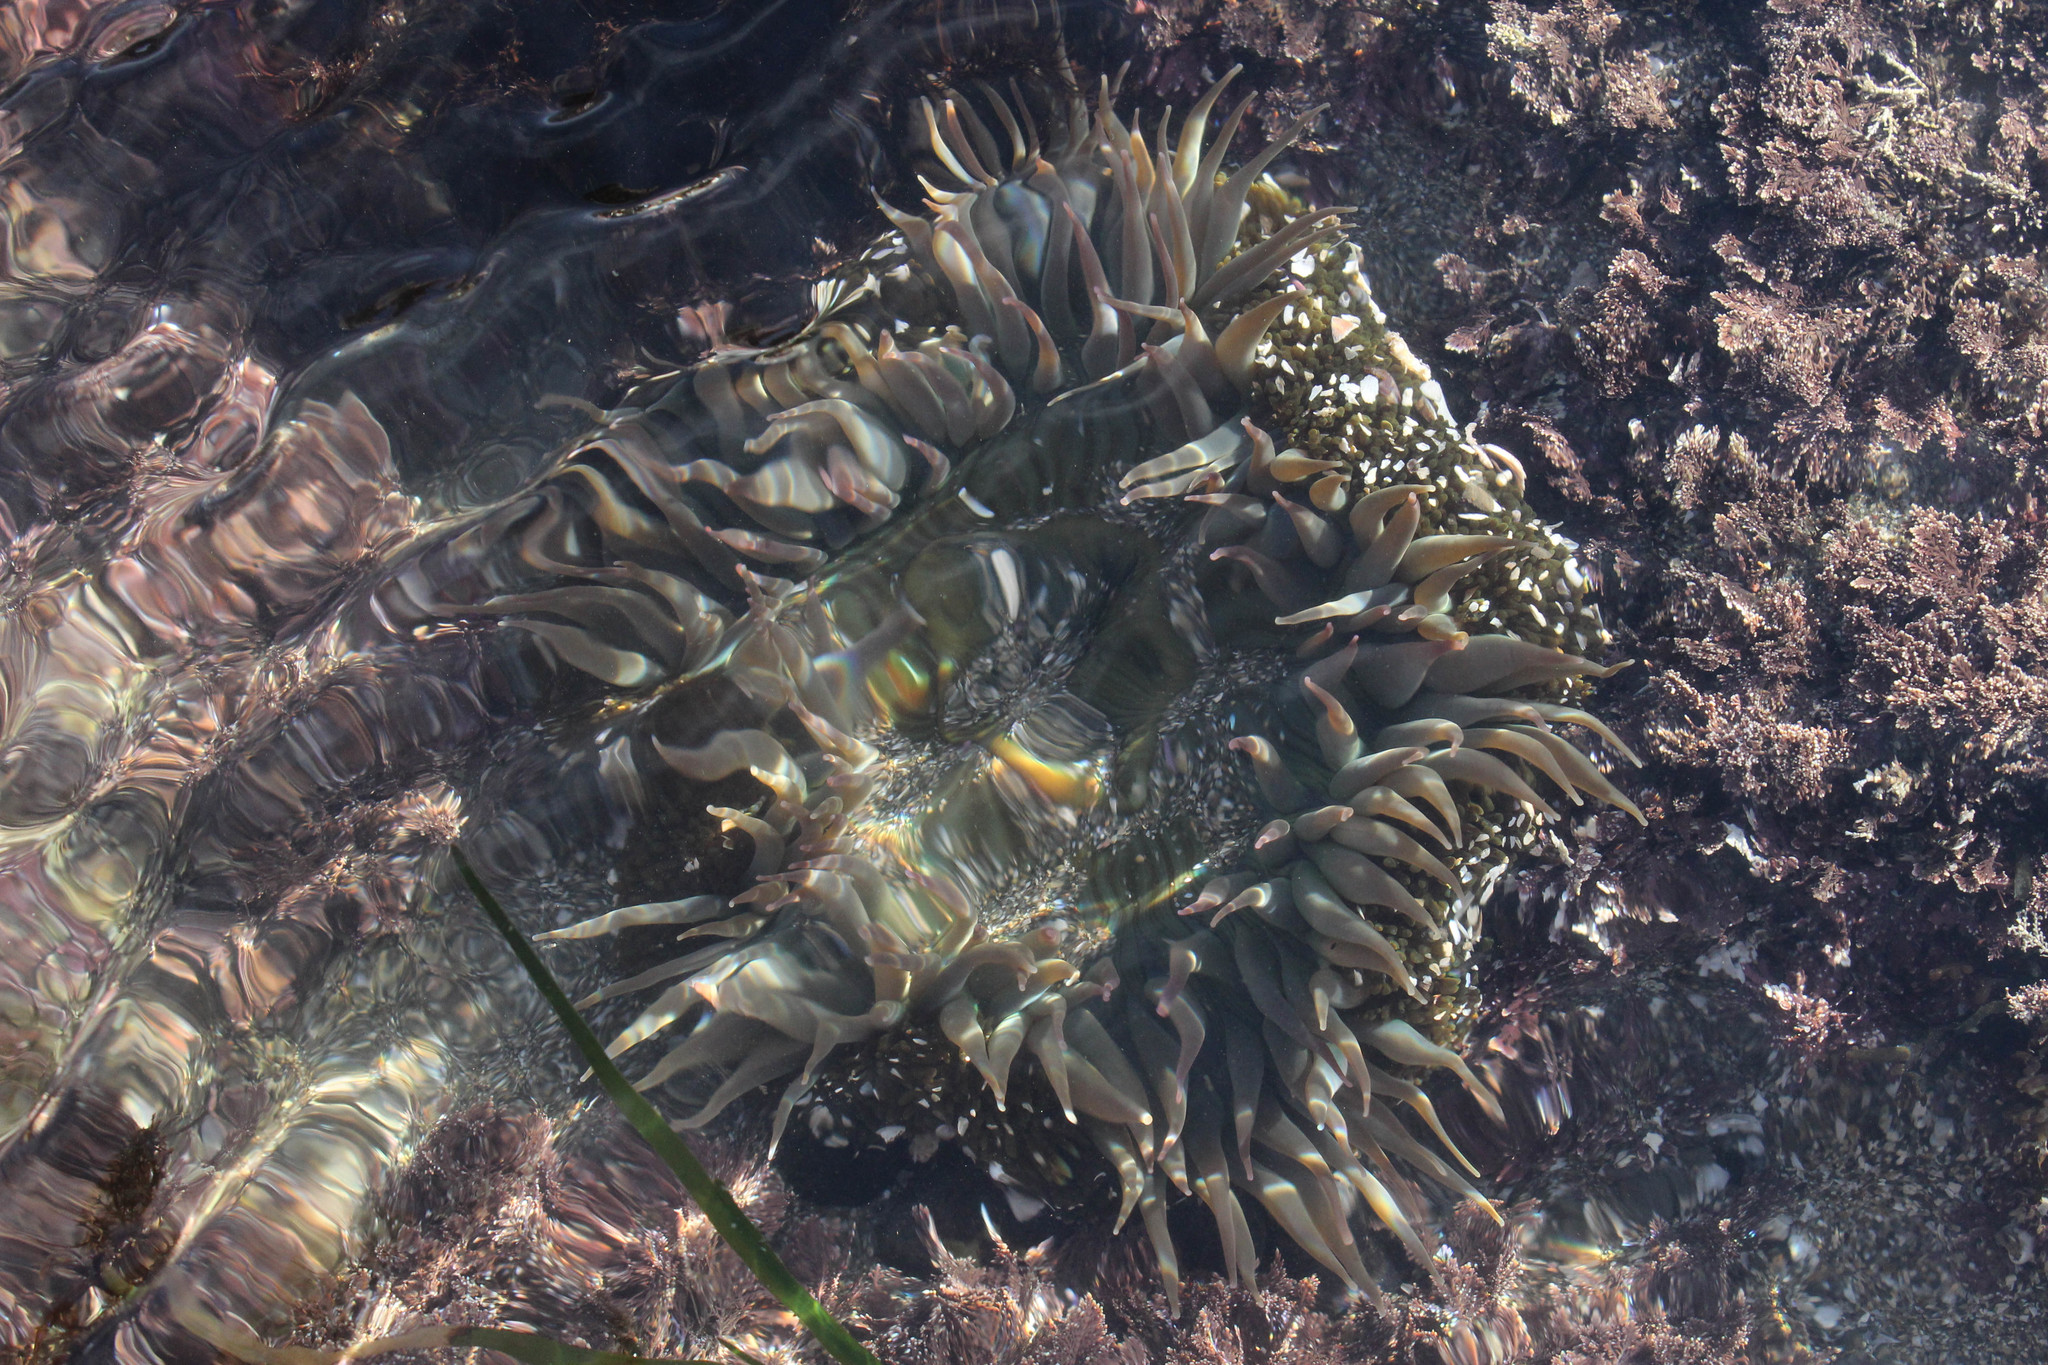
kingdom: Animalia
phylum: Cnidaria
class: Anthozoa
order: Actiniaria
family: Actiniidae
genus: Anthopleura
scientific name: Anthopleura sola
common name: Sun anemone
